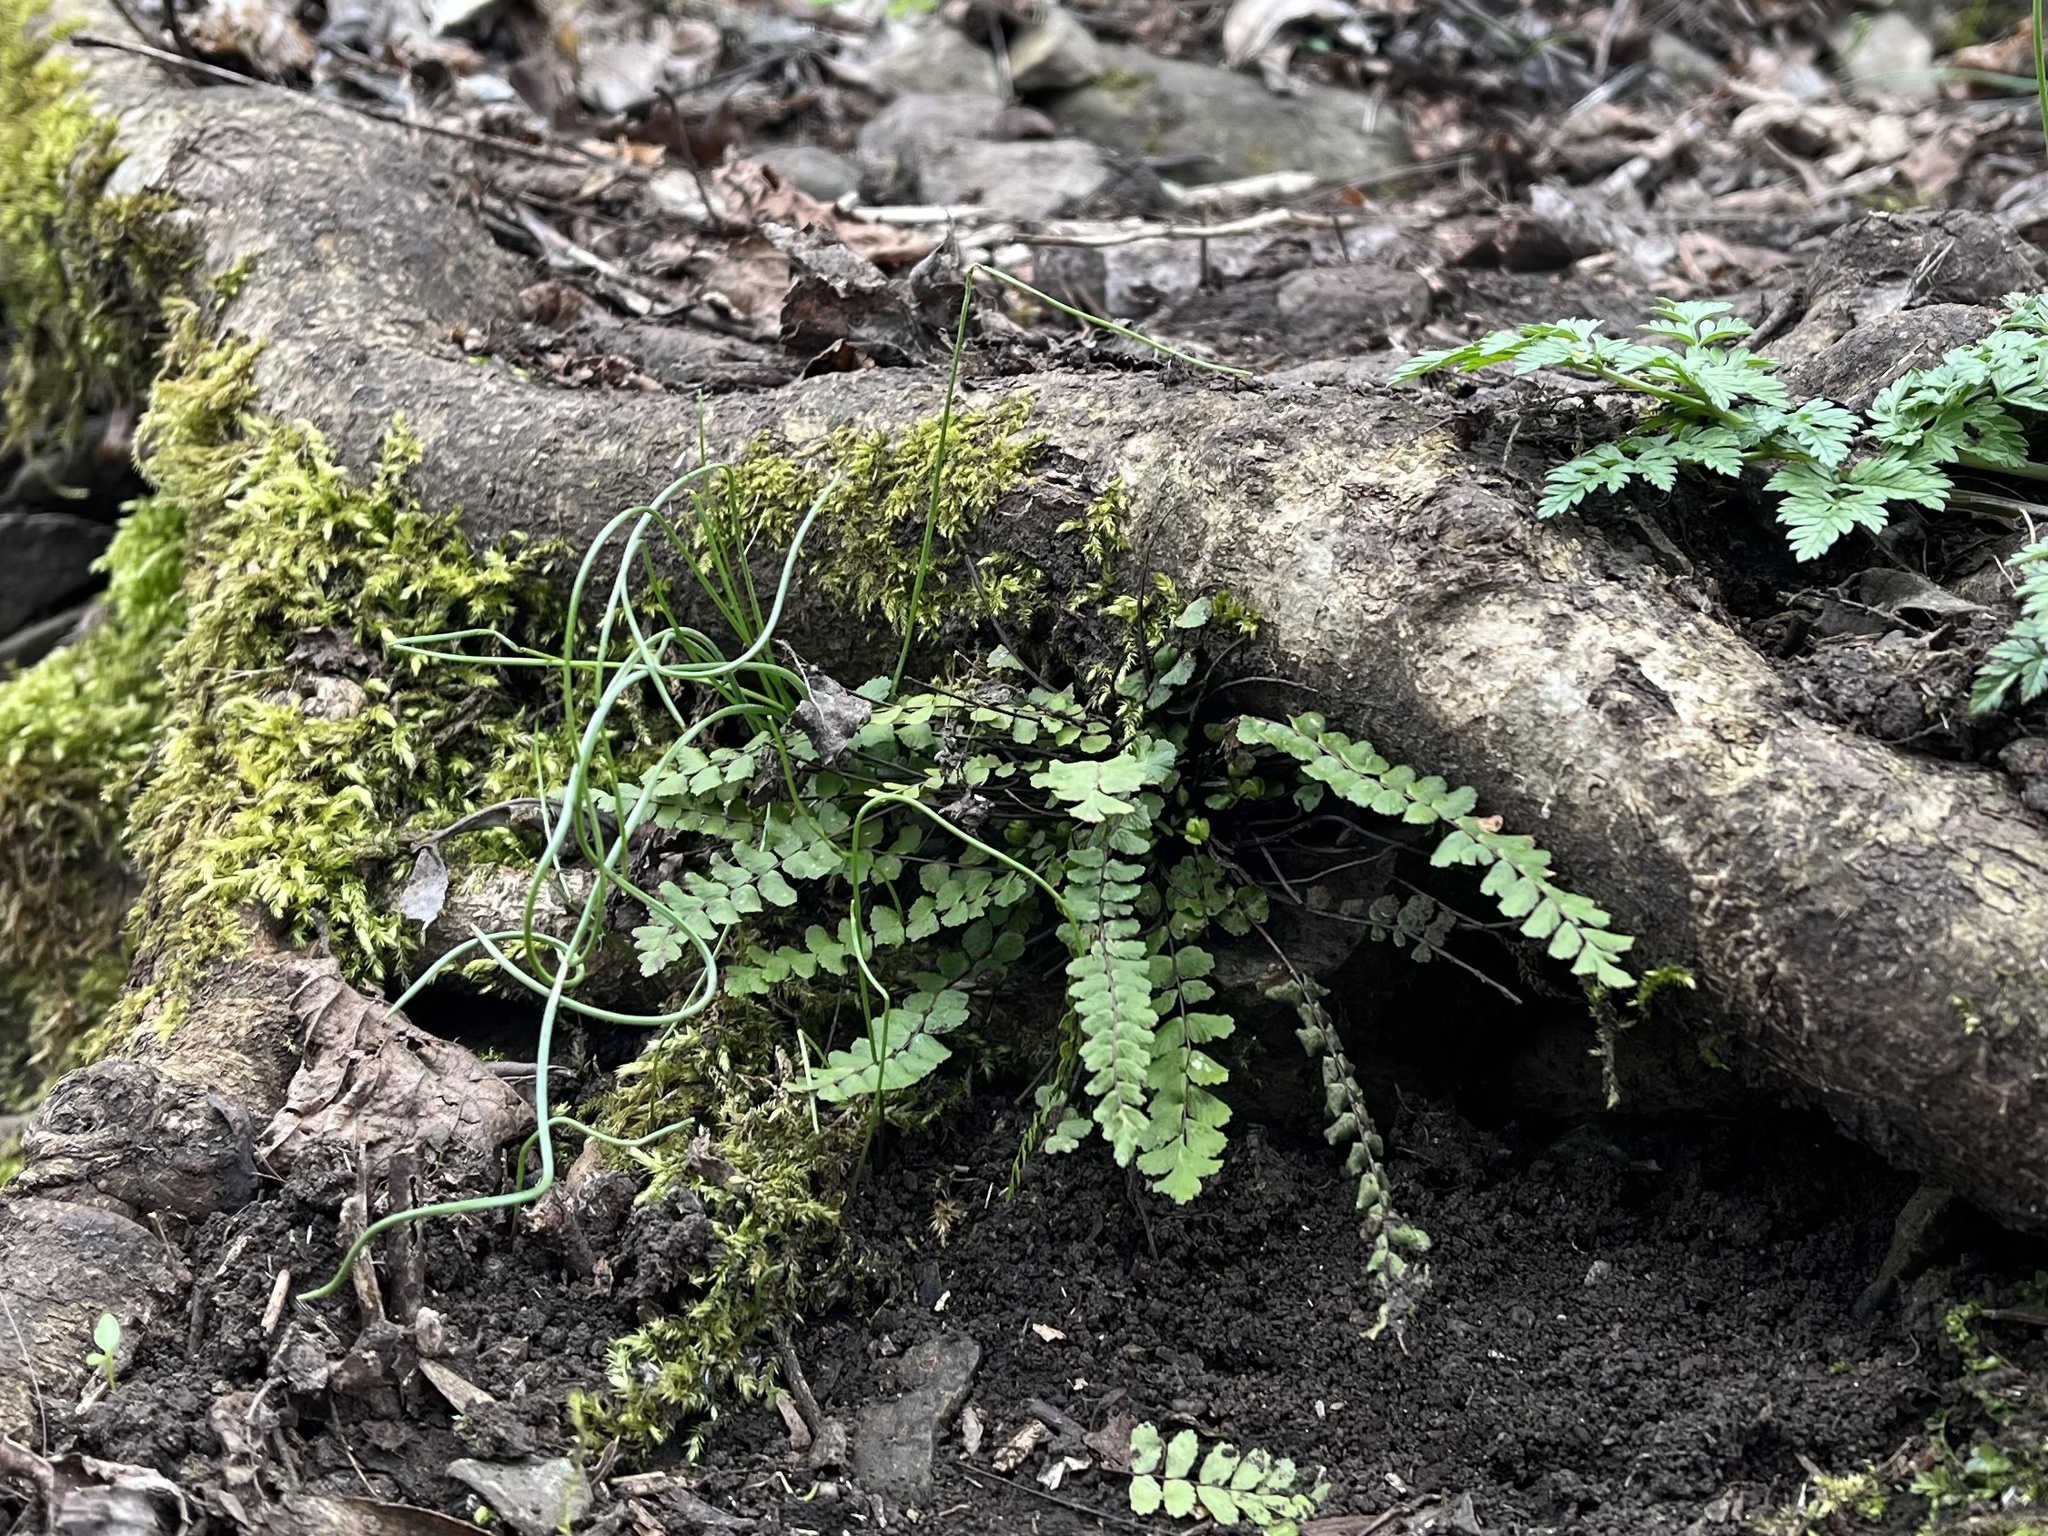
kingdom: Plantae
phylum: Tracheophyta
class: Polypodiopsida
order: Polypodiales
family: Aspleniaceae
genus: Asplenium
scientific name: Asplenium trichomanes
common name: Maidenhair spleenwort
